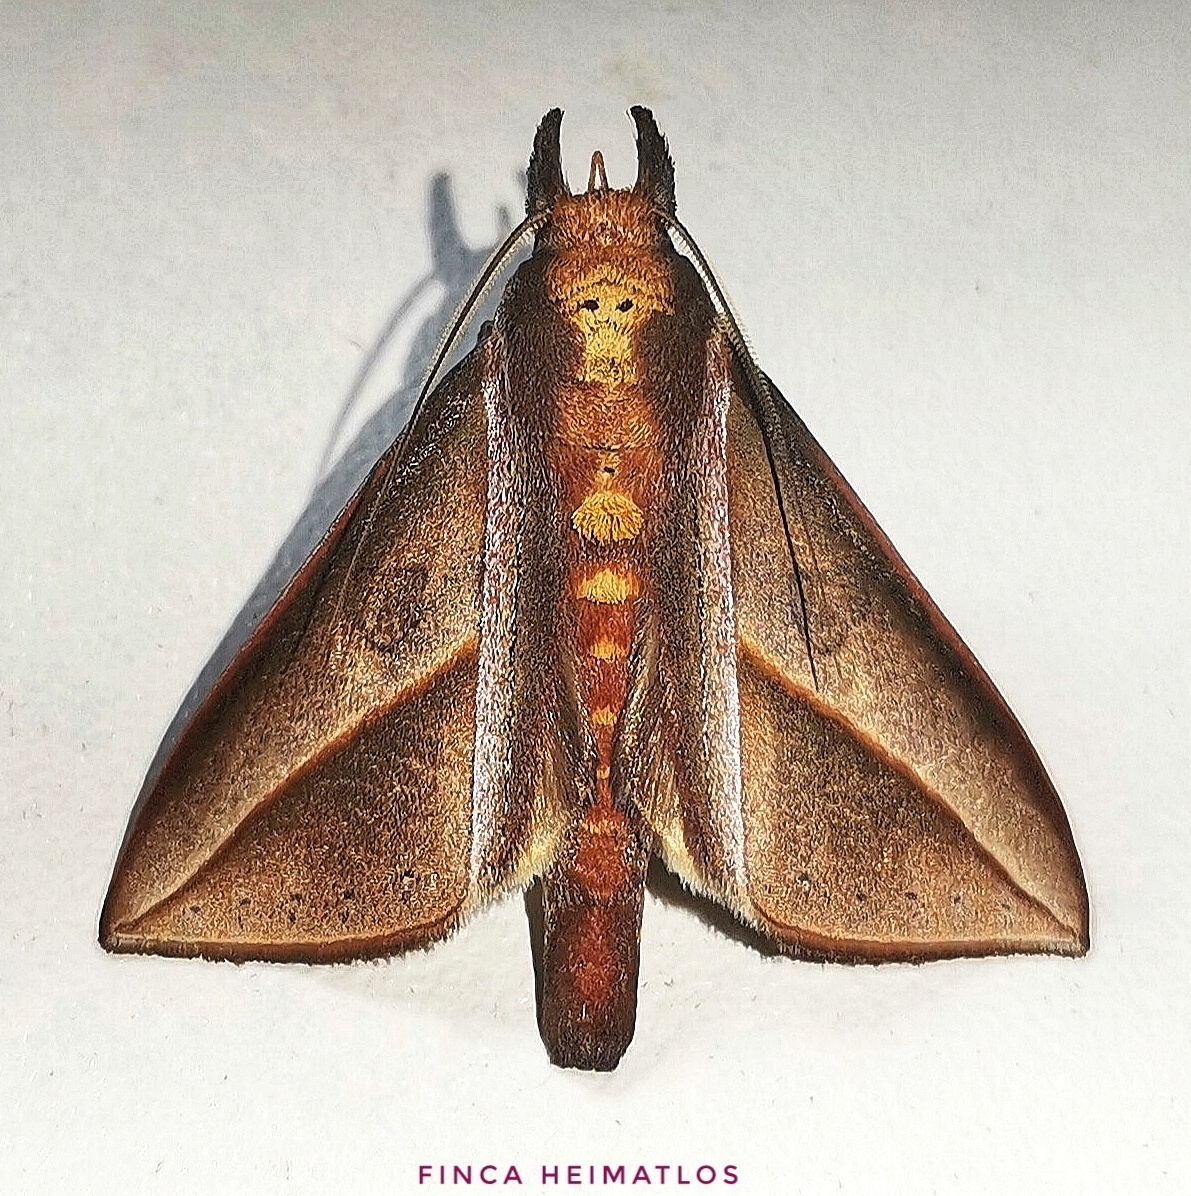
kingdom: Animalia
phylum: Arthropoda
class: Insecta
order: Lepidoptera
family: Notodontidae
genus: Strophocerus
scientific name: Strophocerus sericea
